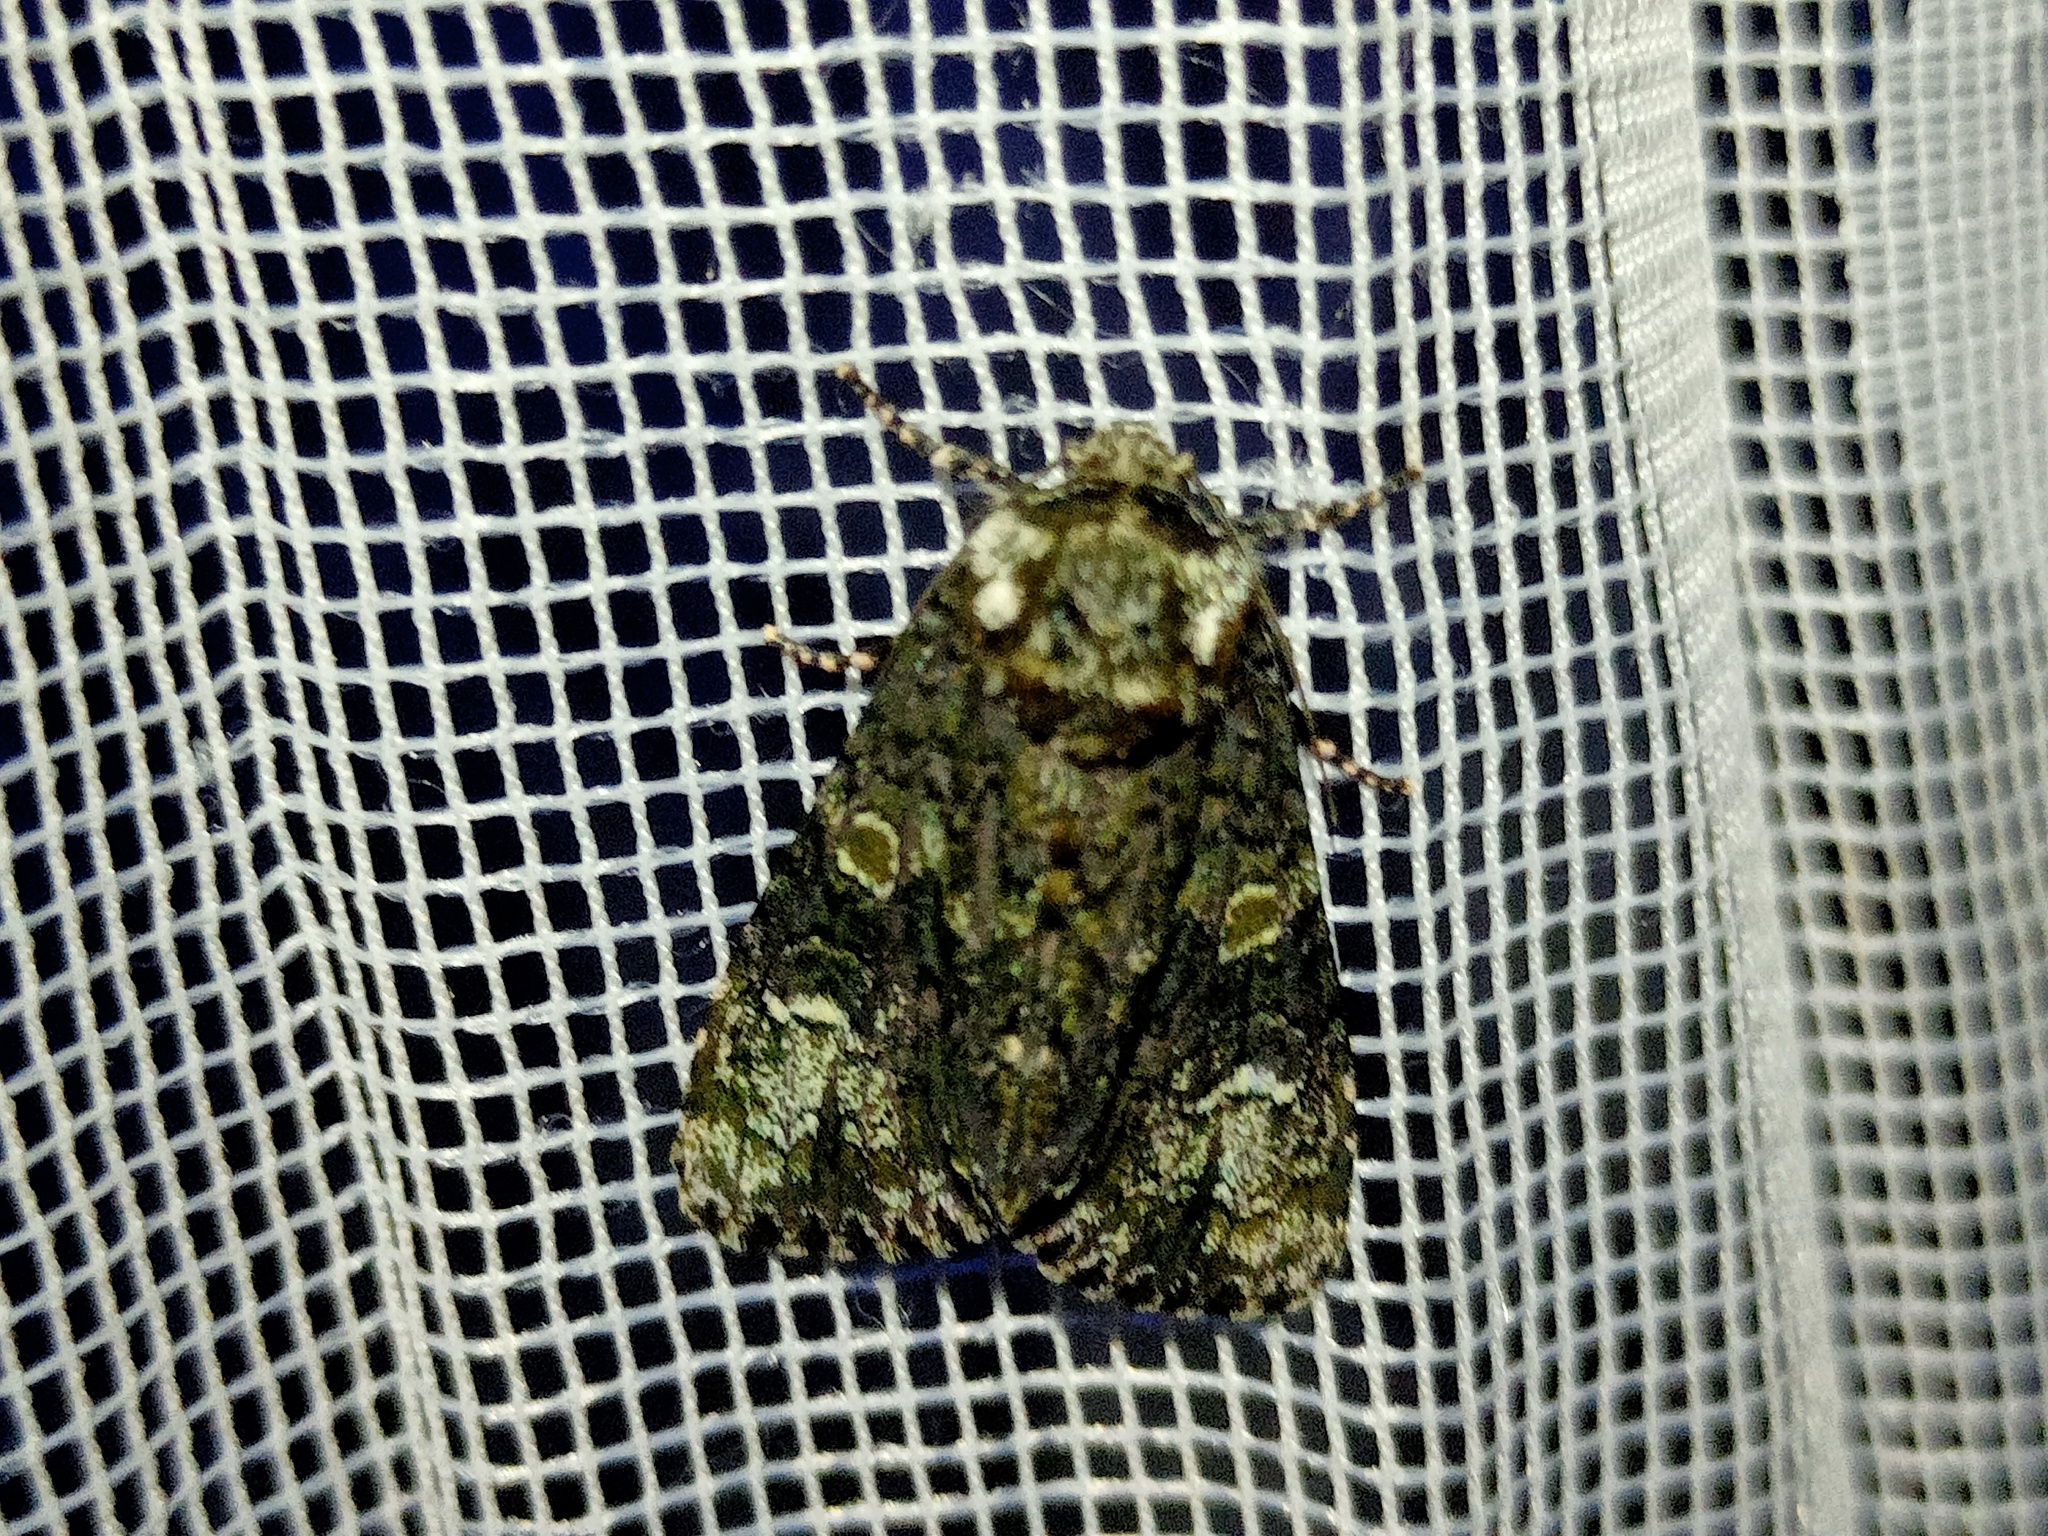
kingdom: Animalia
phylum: Arthropoda
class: Insecta
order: Lepidoptera
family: Noctuidae
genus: Craniophora
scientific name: Craniophora ligustri
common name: Coronet
